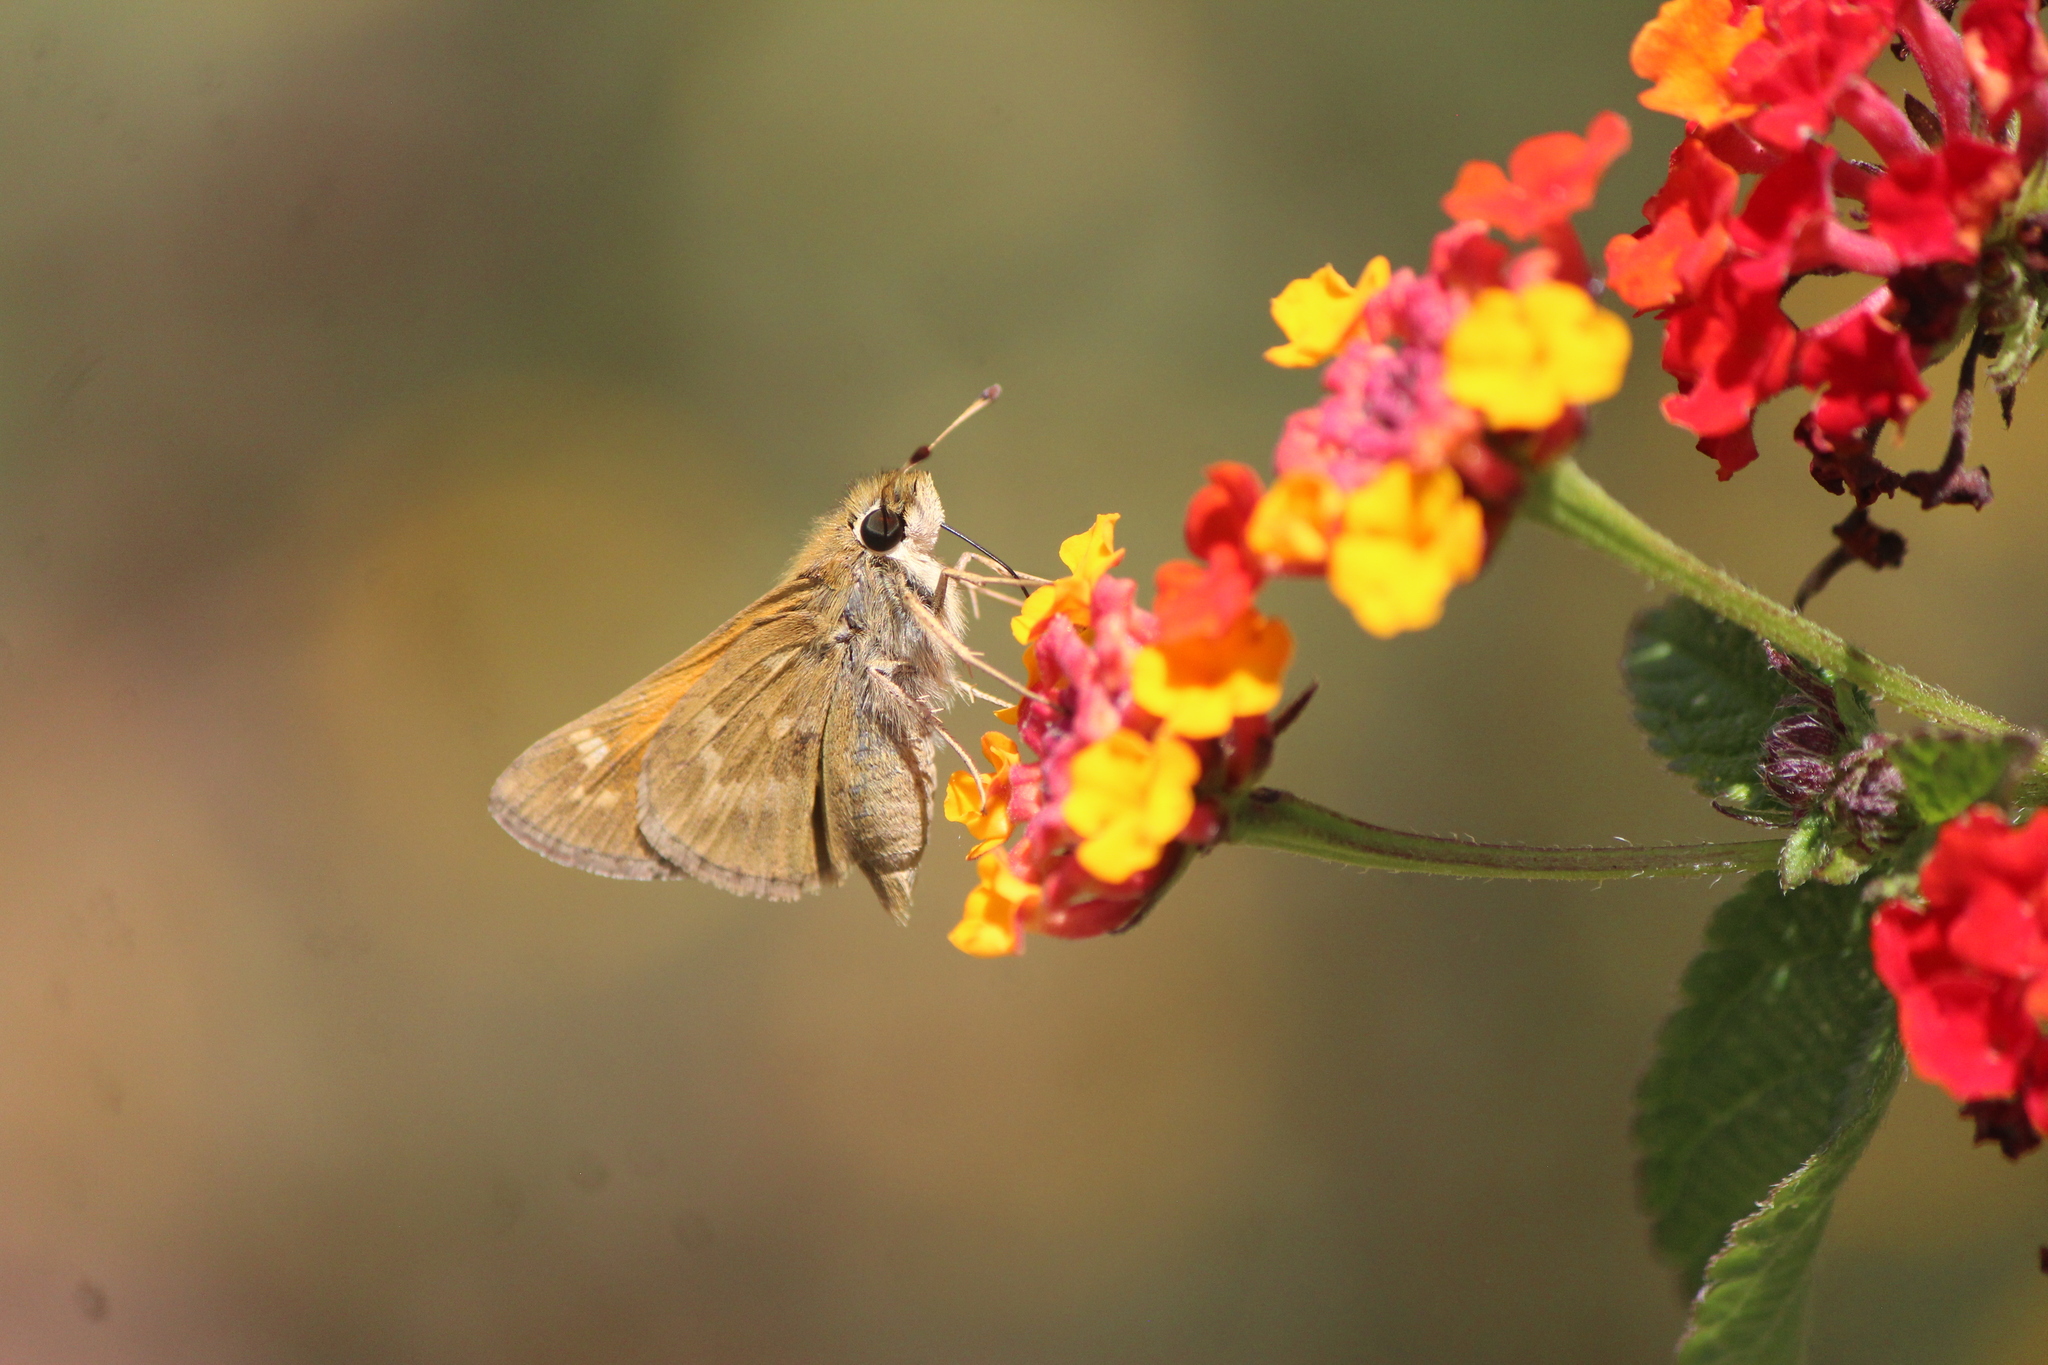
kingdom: Animalia
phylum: Arthropoda
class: Insecta
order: Lepidoptera
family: Hesperiidae
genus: Atalopedes
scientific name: Atalopedes
